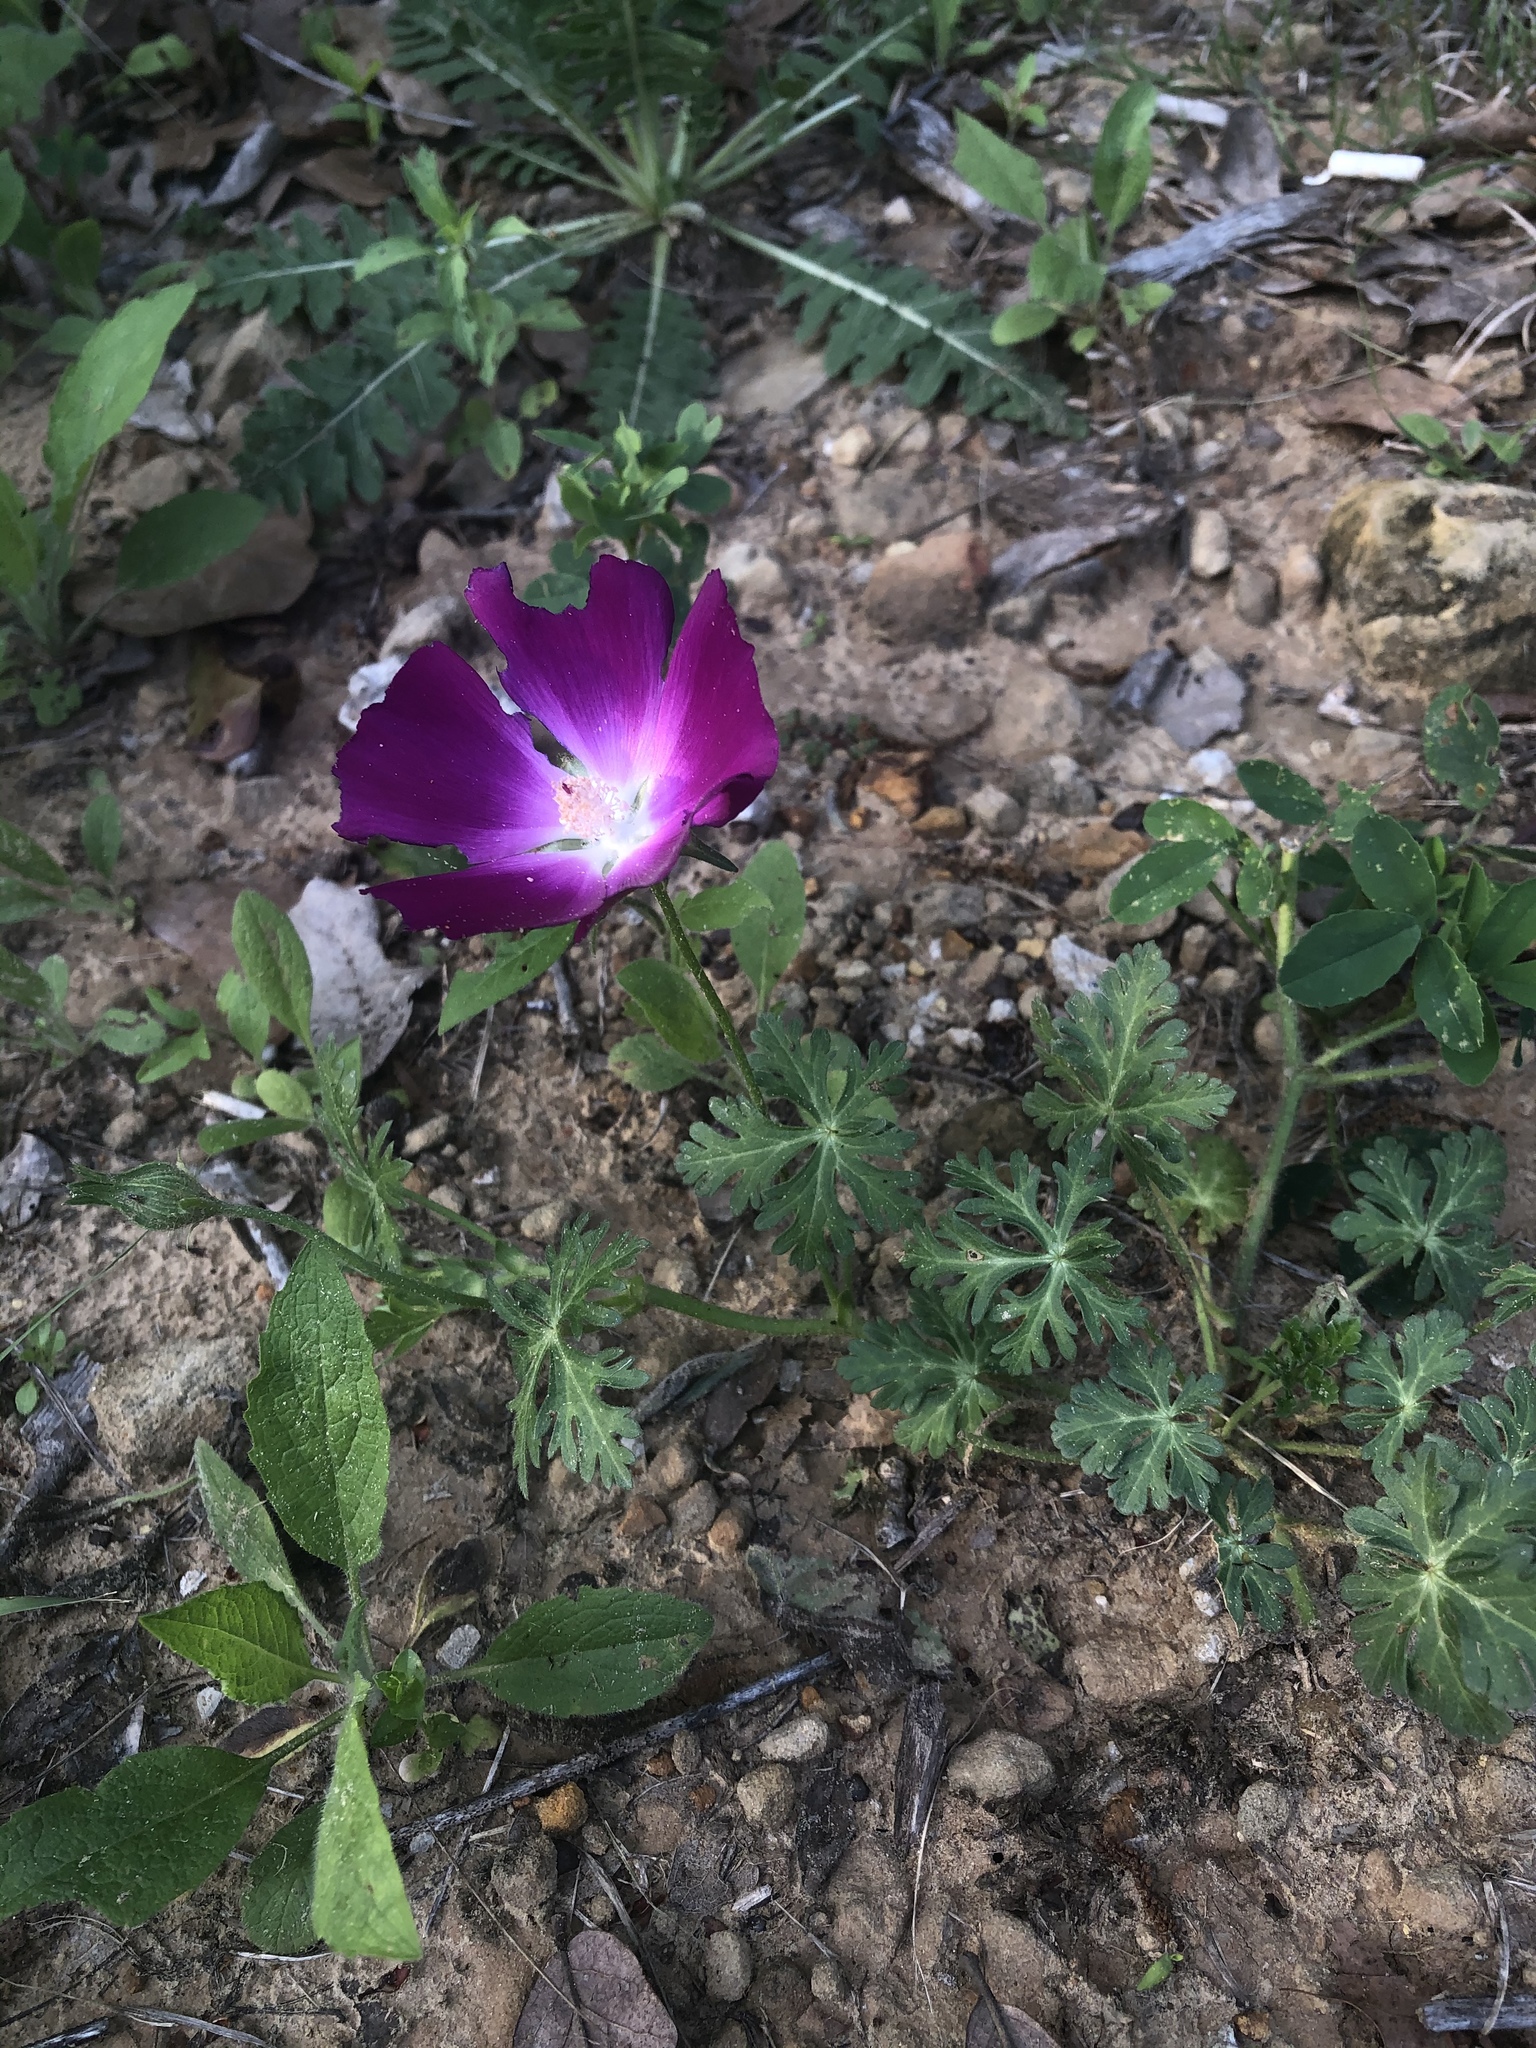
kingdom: Plantae
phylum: Tracheophyta
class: Magnoliopsida
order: Malvales
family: Malvaceae
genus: Callirhoe
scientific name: Callirhoe involucrata
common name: Purple poppy-mallow
